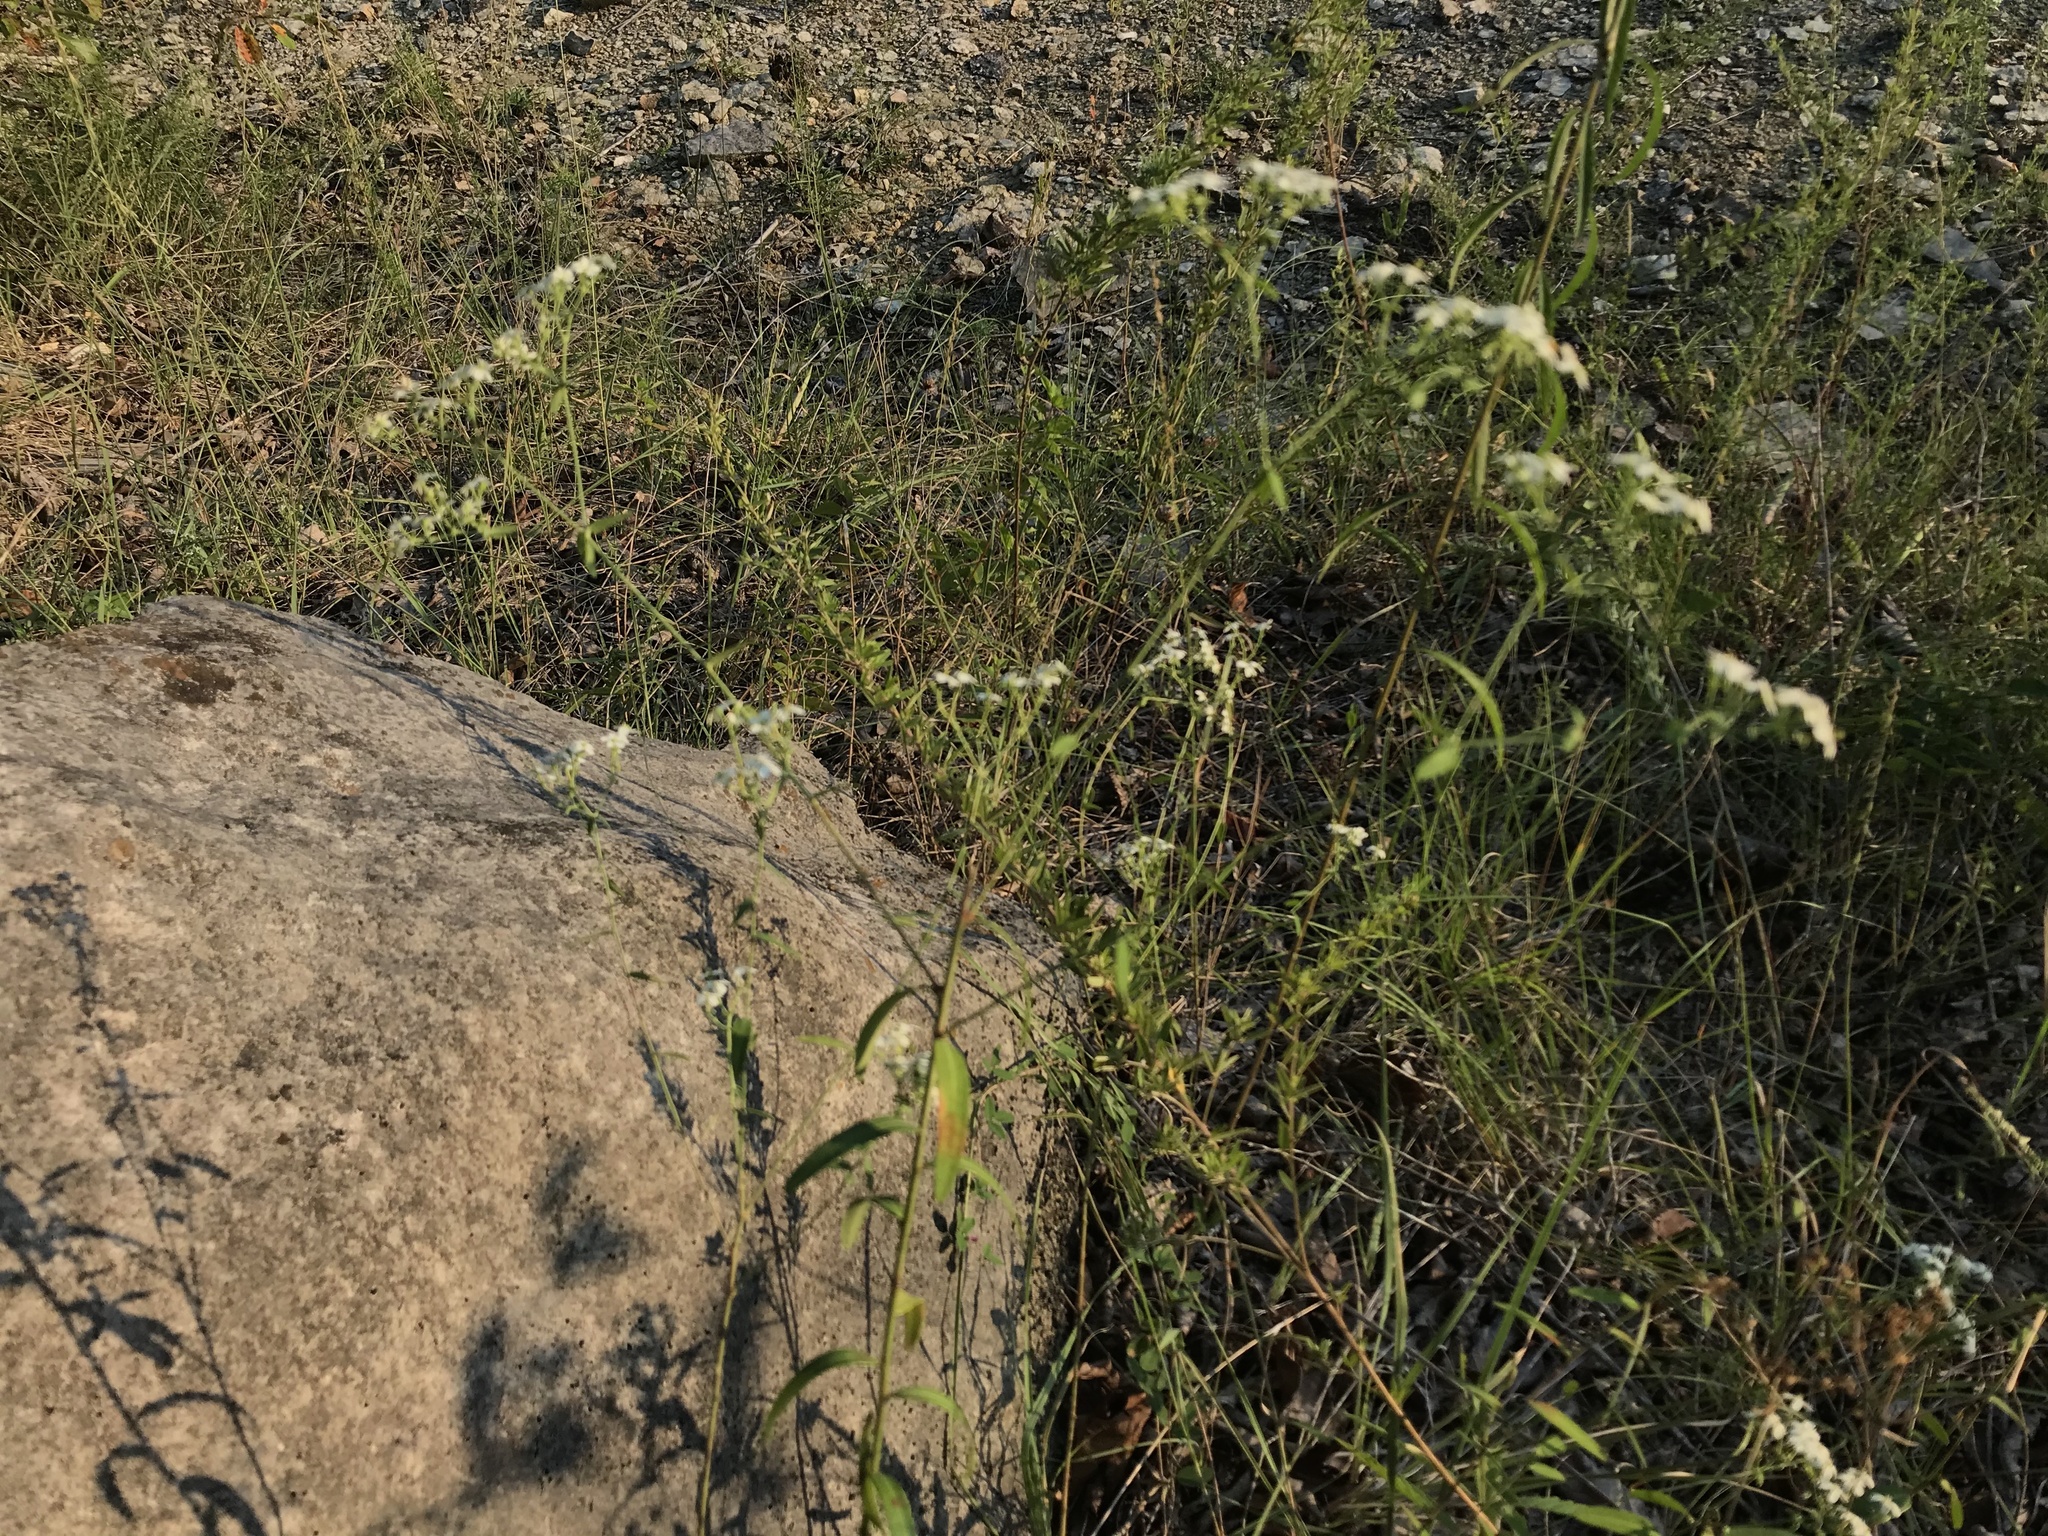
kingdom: Plantae
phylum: Tracheophyta
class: Magnoliopsida
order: Malpighiales
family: Euphorbiaceae
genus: Euphorbia
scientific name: Euphorbia corollata
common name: Flowering spurge
